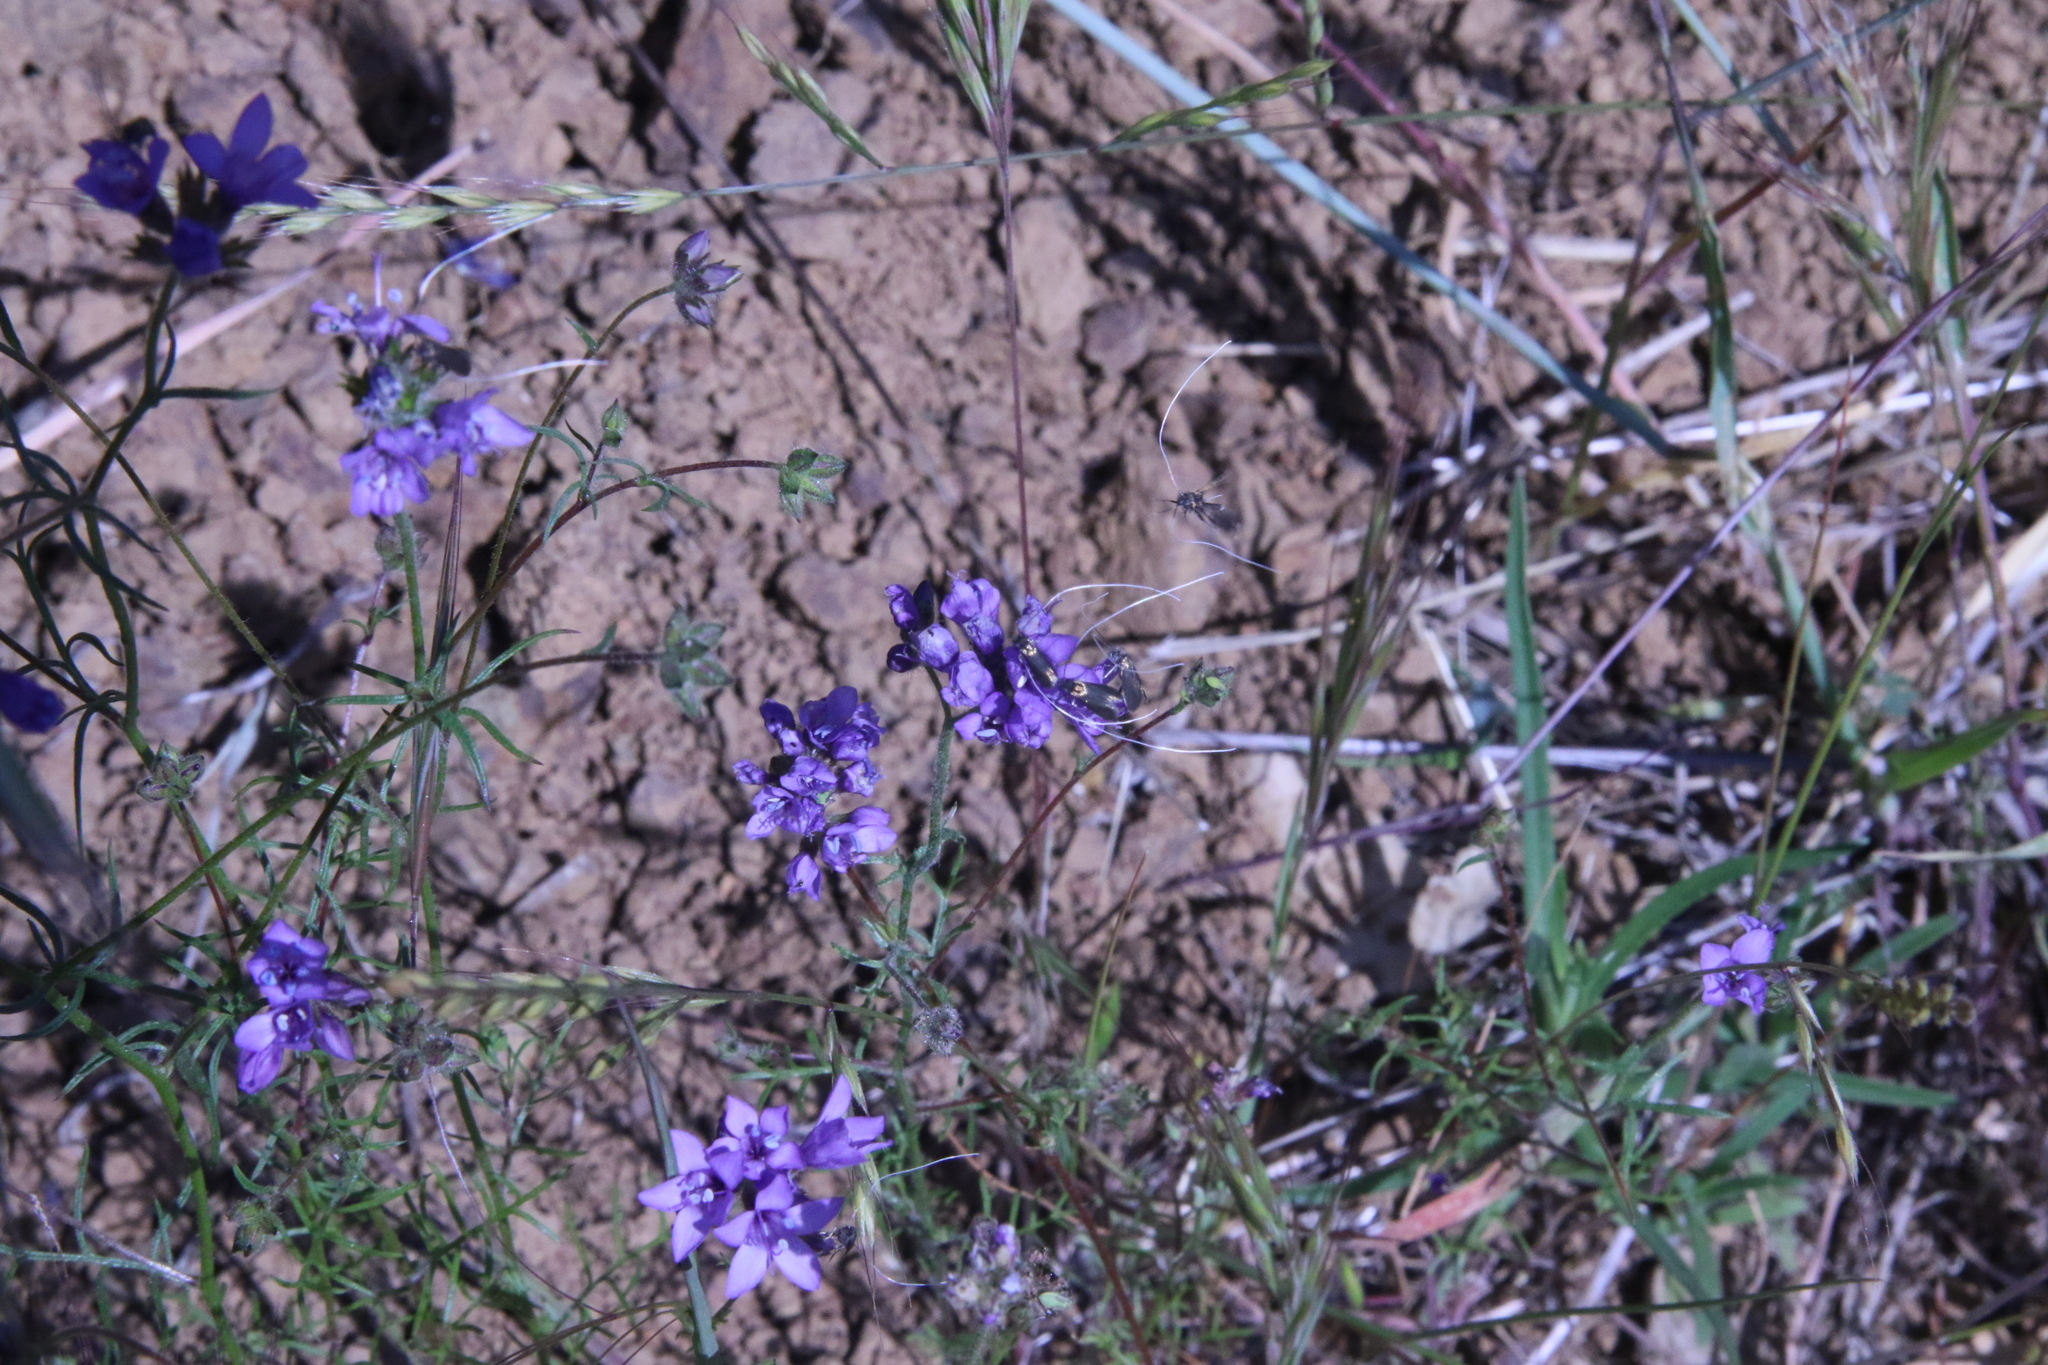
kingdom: Plantae
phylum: Tracheophyta
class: Magnoliopsida
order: Ericales
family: Polemoniaceae
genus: Gilia
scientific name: Gilia achilleifolia
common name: California gily-flower
